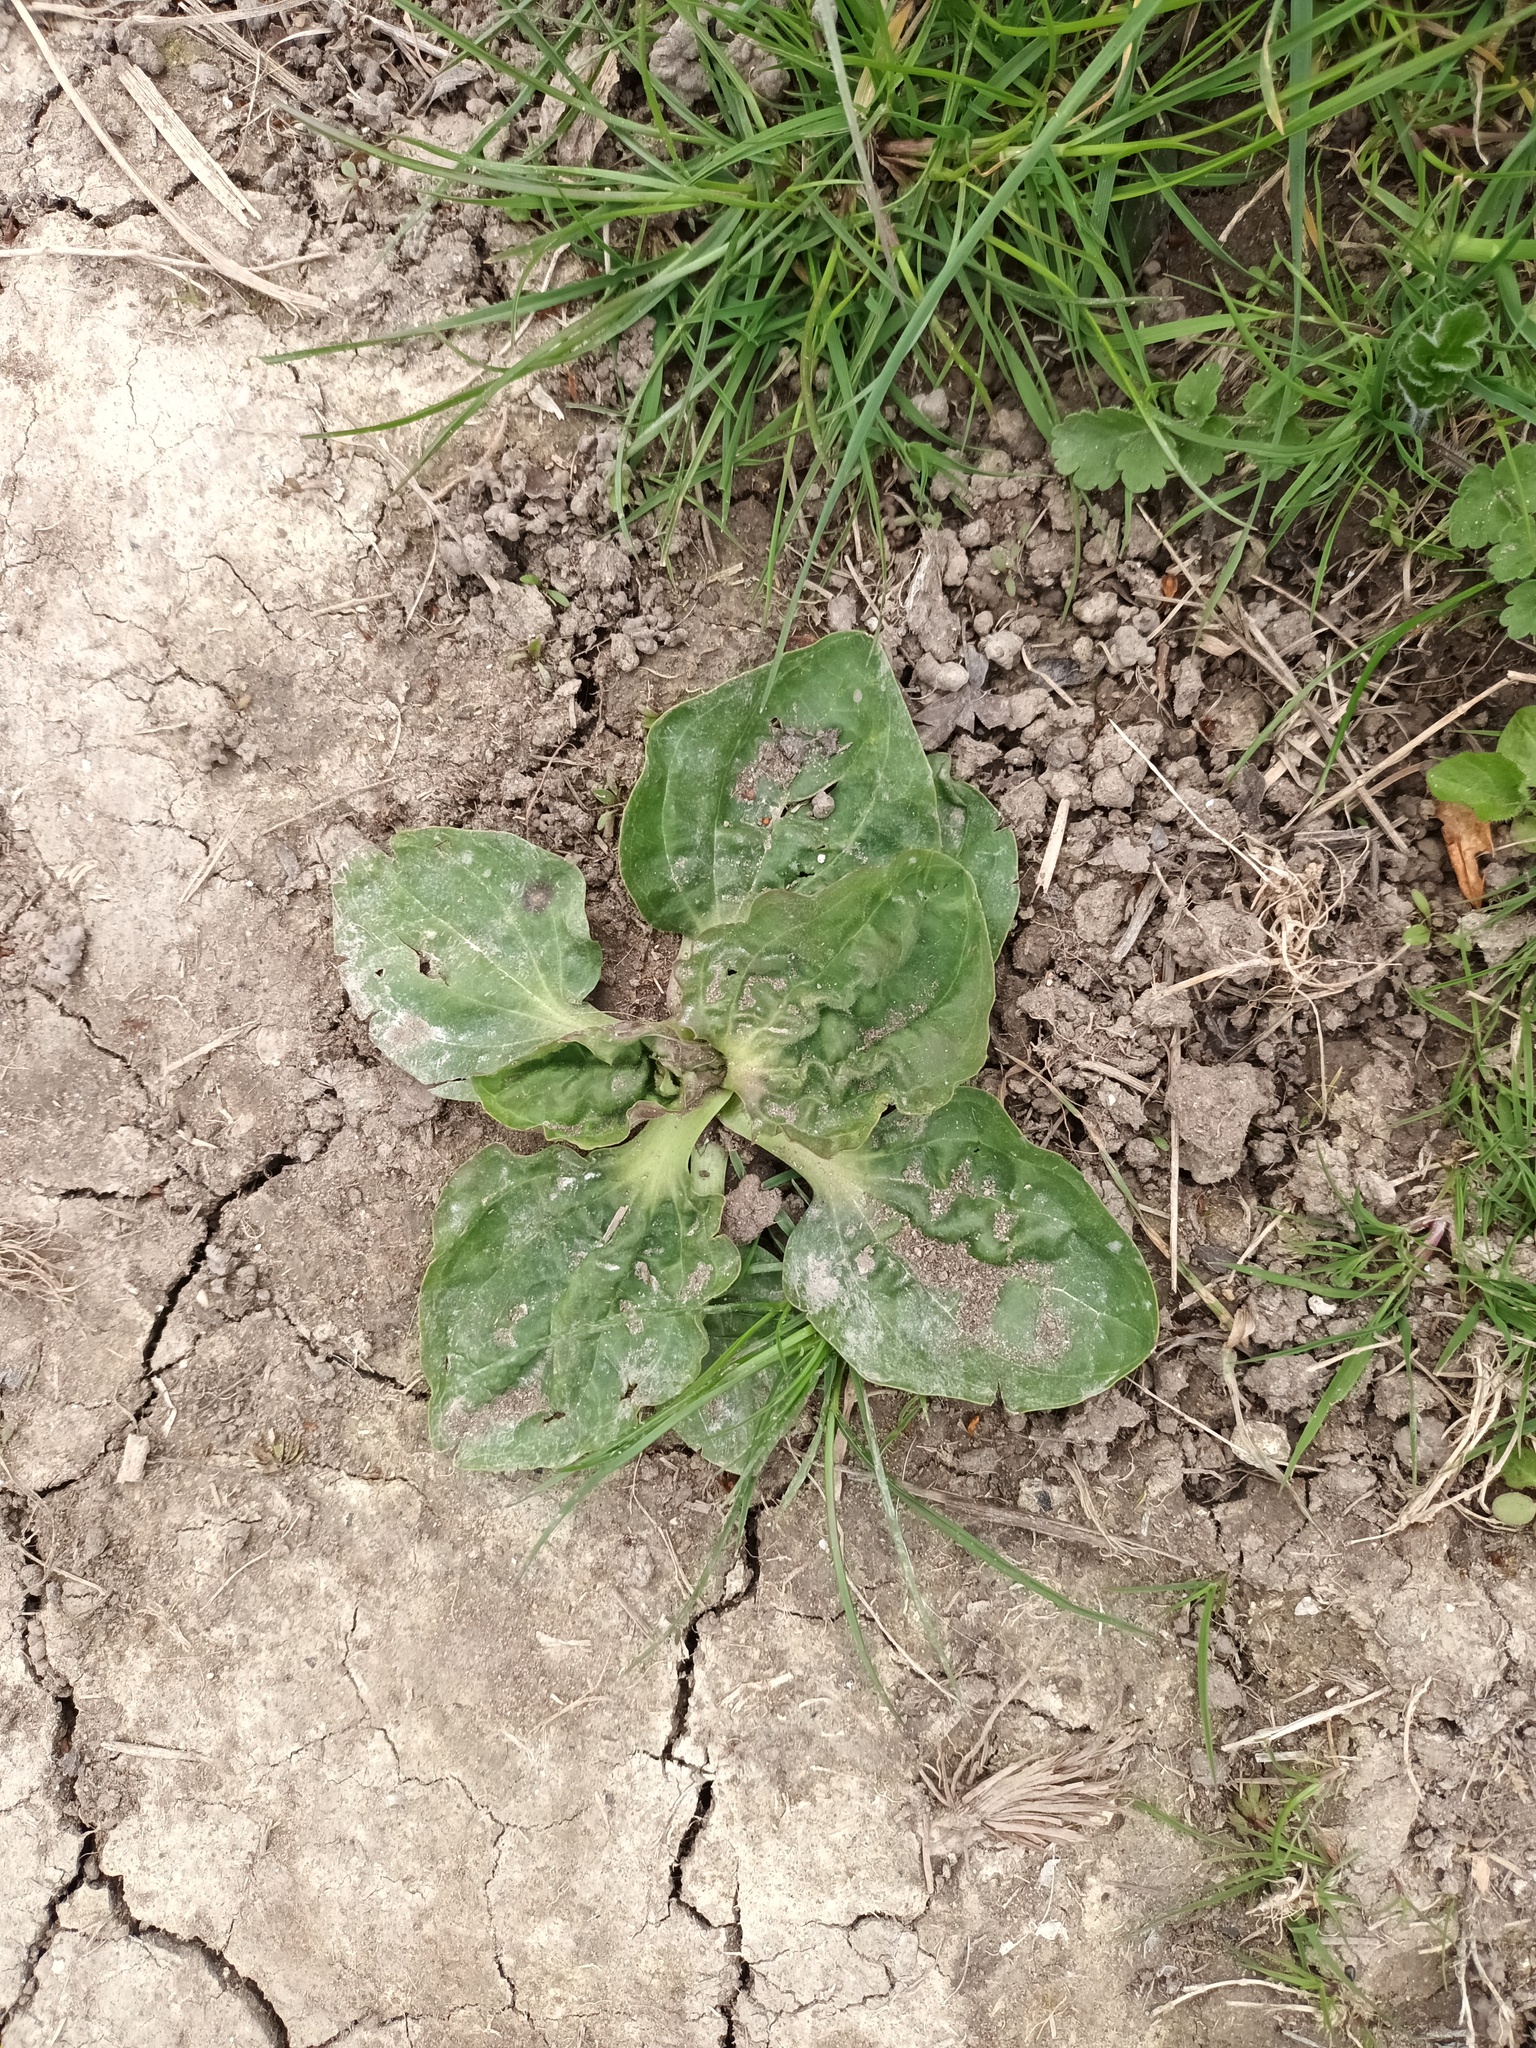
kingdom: Plantae
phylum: Tracheophyta
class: Magnoliopsida
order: Lamiales
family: Plantaginaceae
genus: Plantago
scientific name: Plantago major
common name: Common plantain
